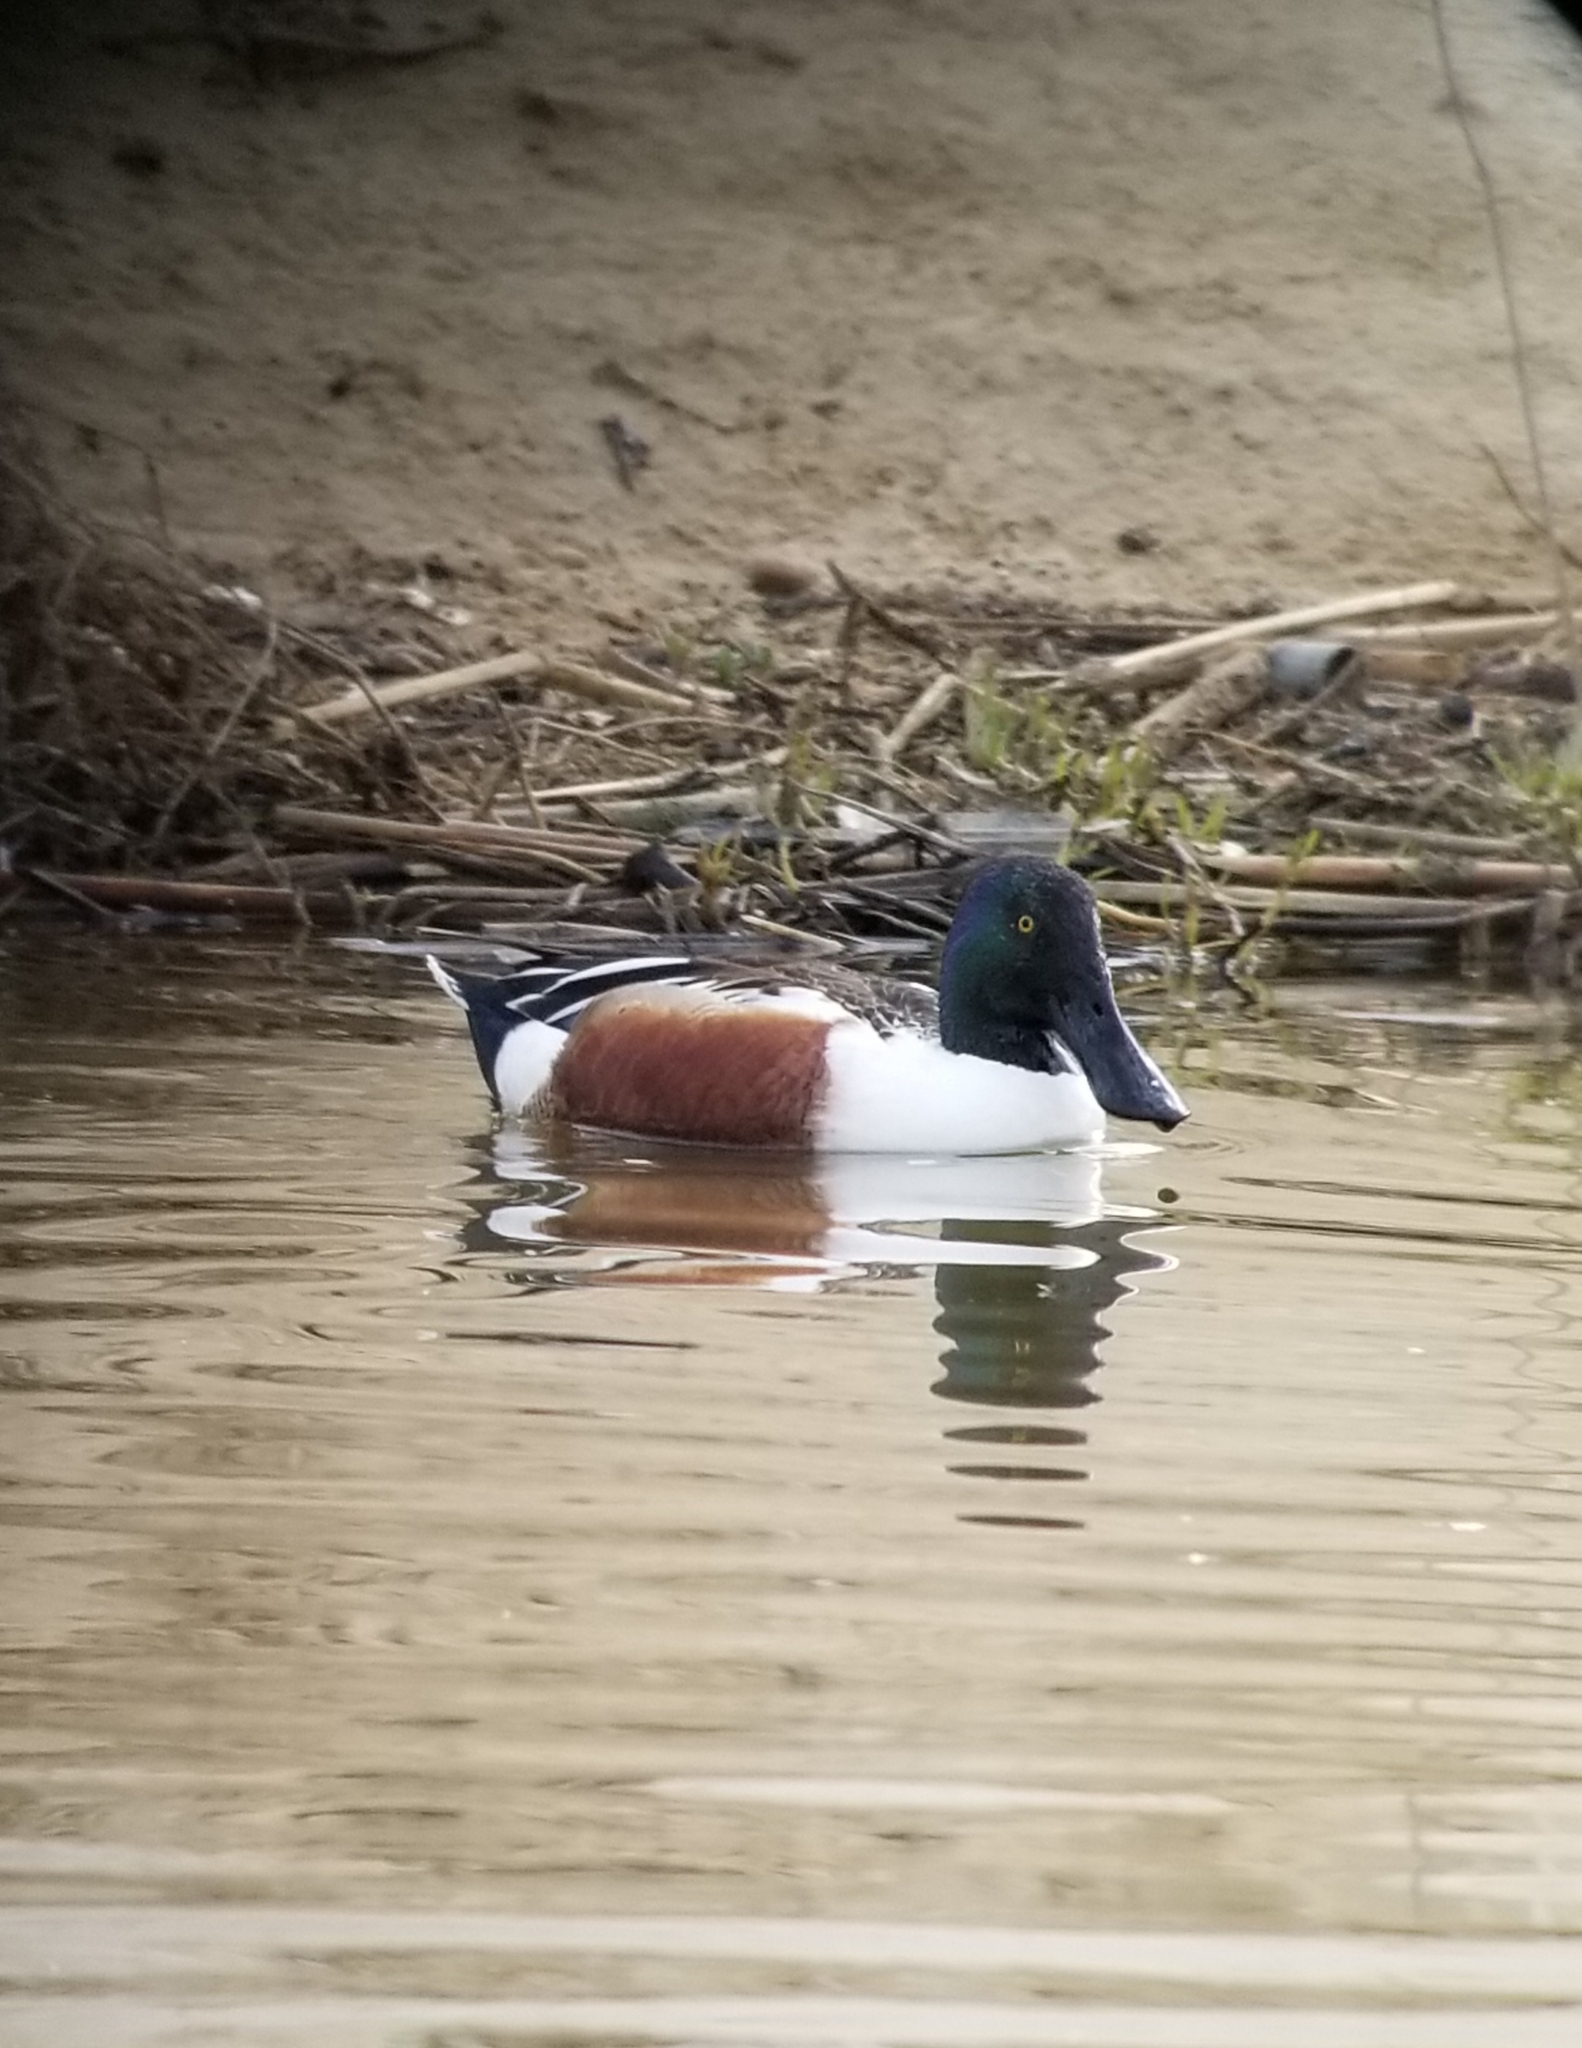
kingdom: Animalia
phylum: Chordata
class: Aves
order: Anseriformes
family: Anatidae
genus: Spatula
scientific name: Spatula clypeata
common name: Northern shoveler
